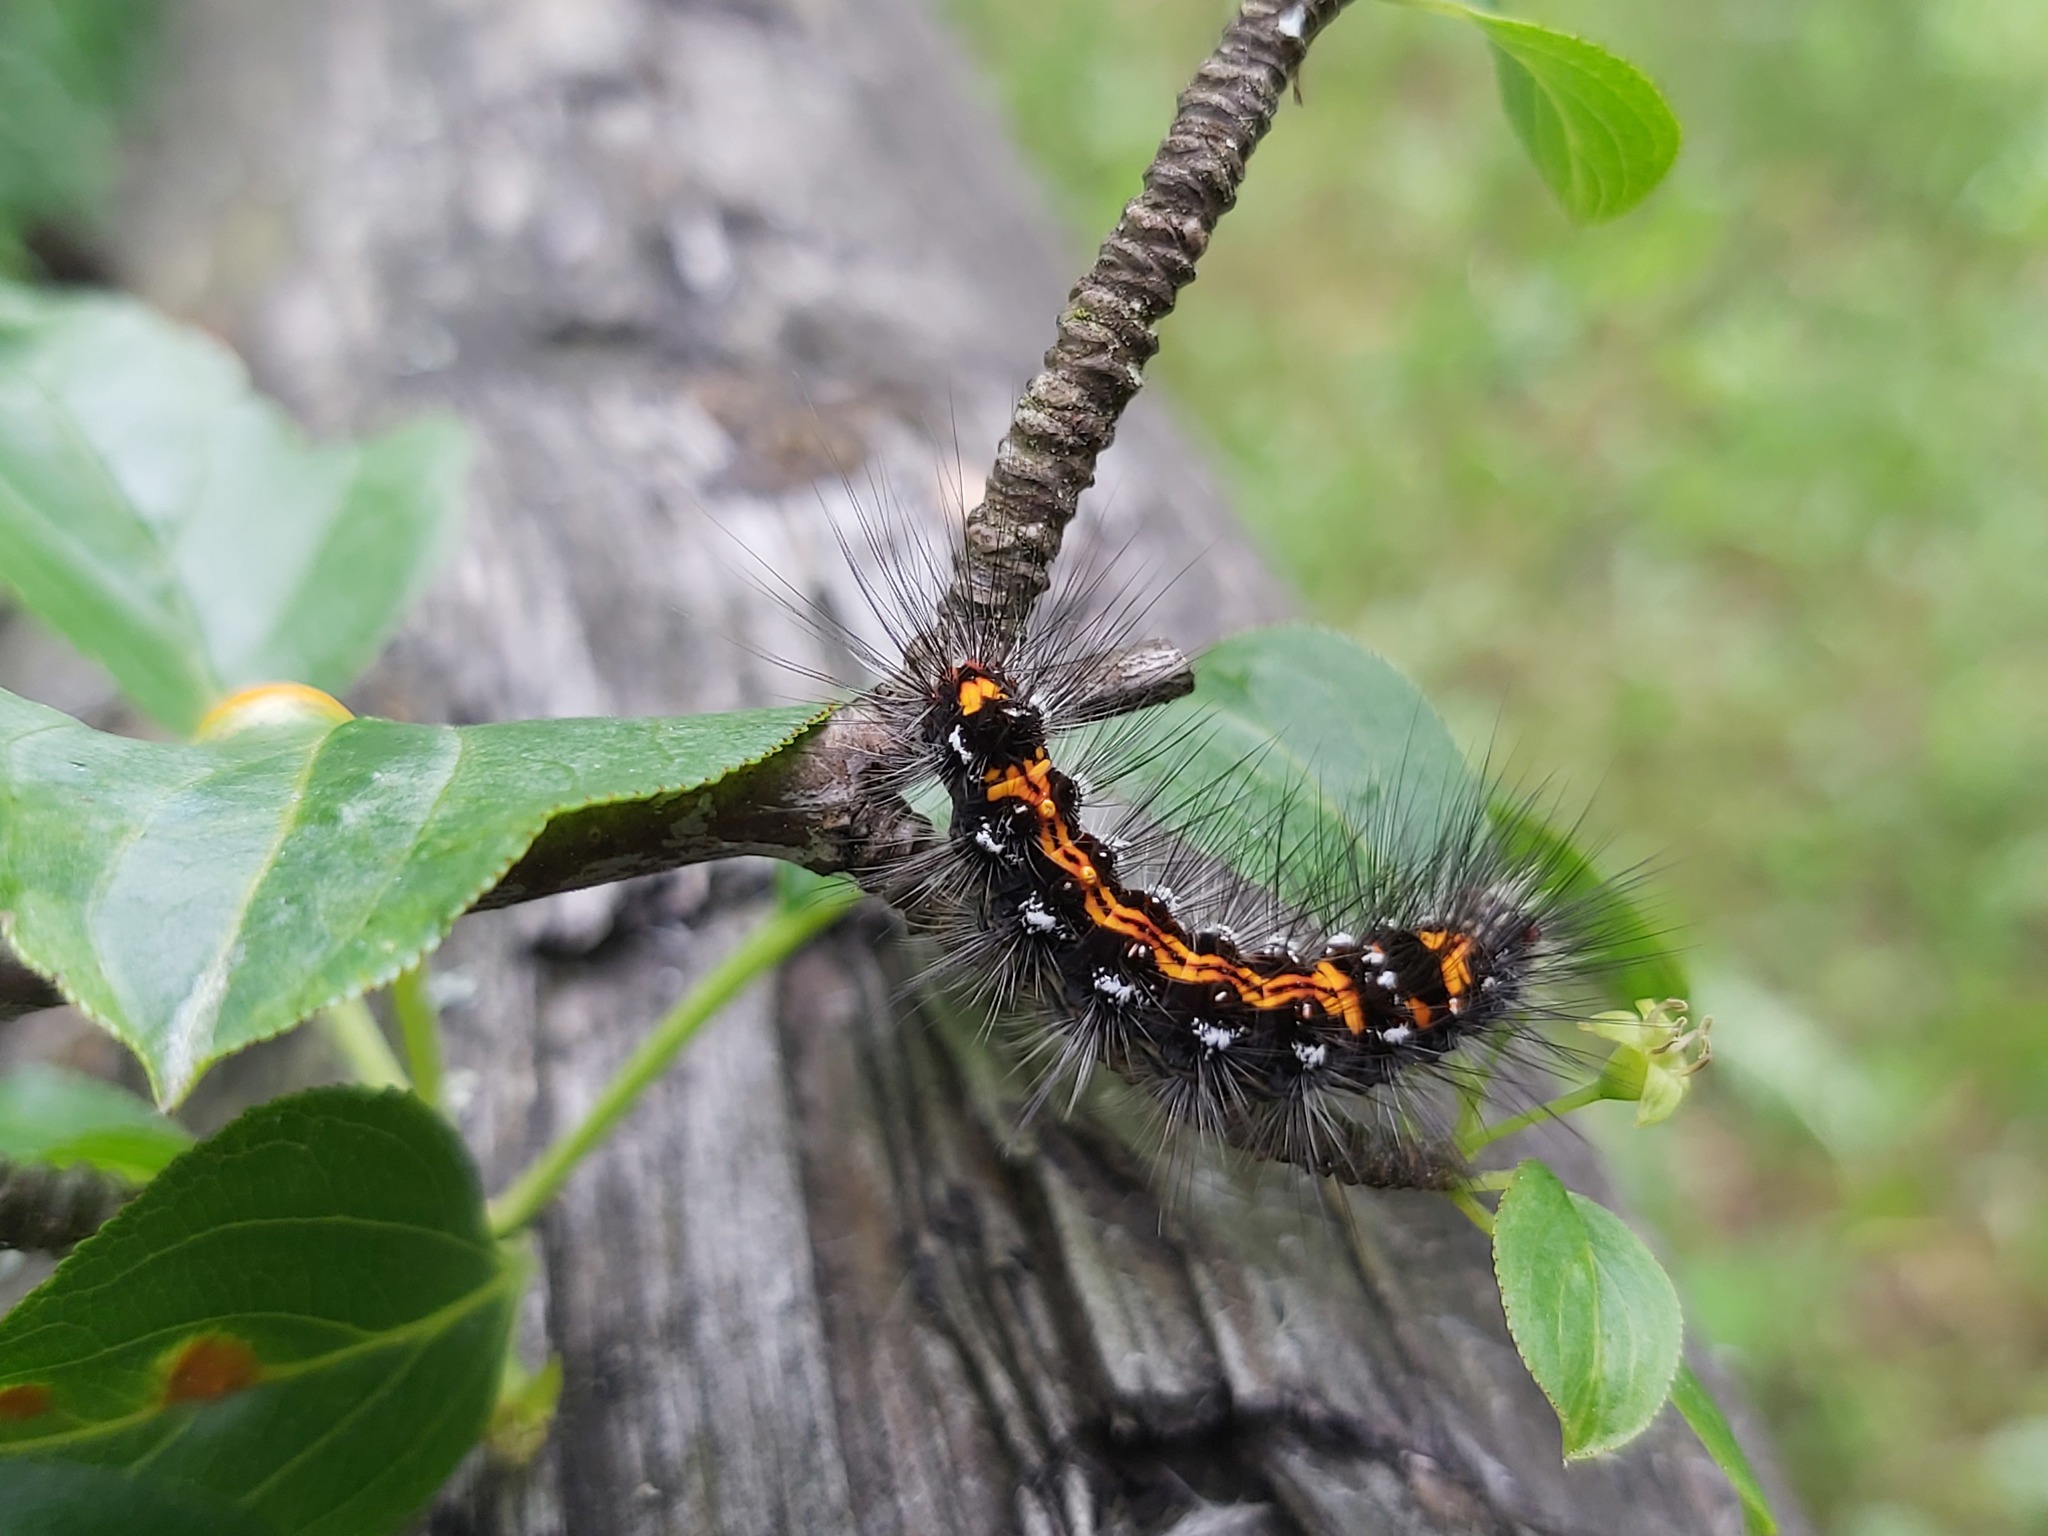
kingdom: Animalia
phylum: Arthropoda
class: Insecta
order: Lepidoptera
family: Erebidae
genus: Sphrageidus
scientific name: Sphrageidus similis
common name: Yellow-tail
